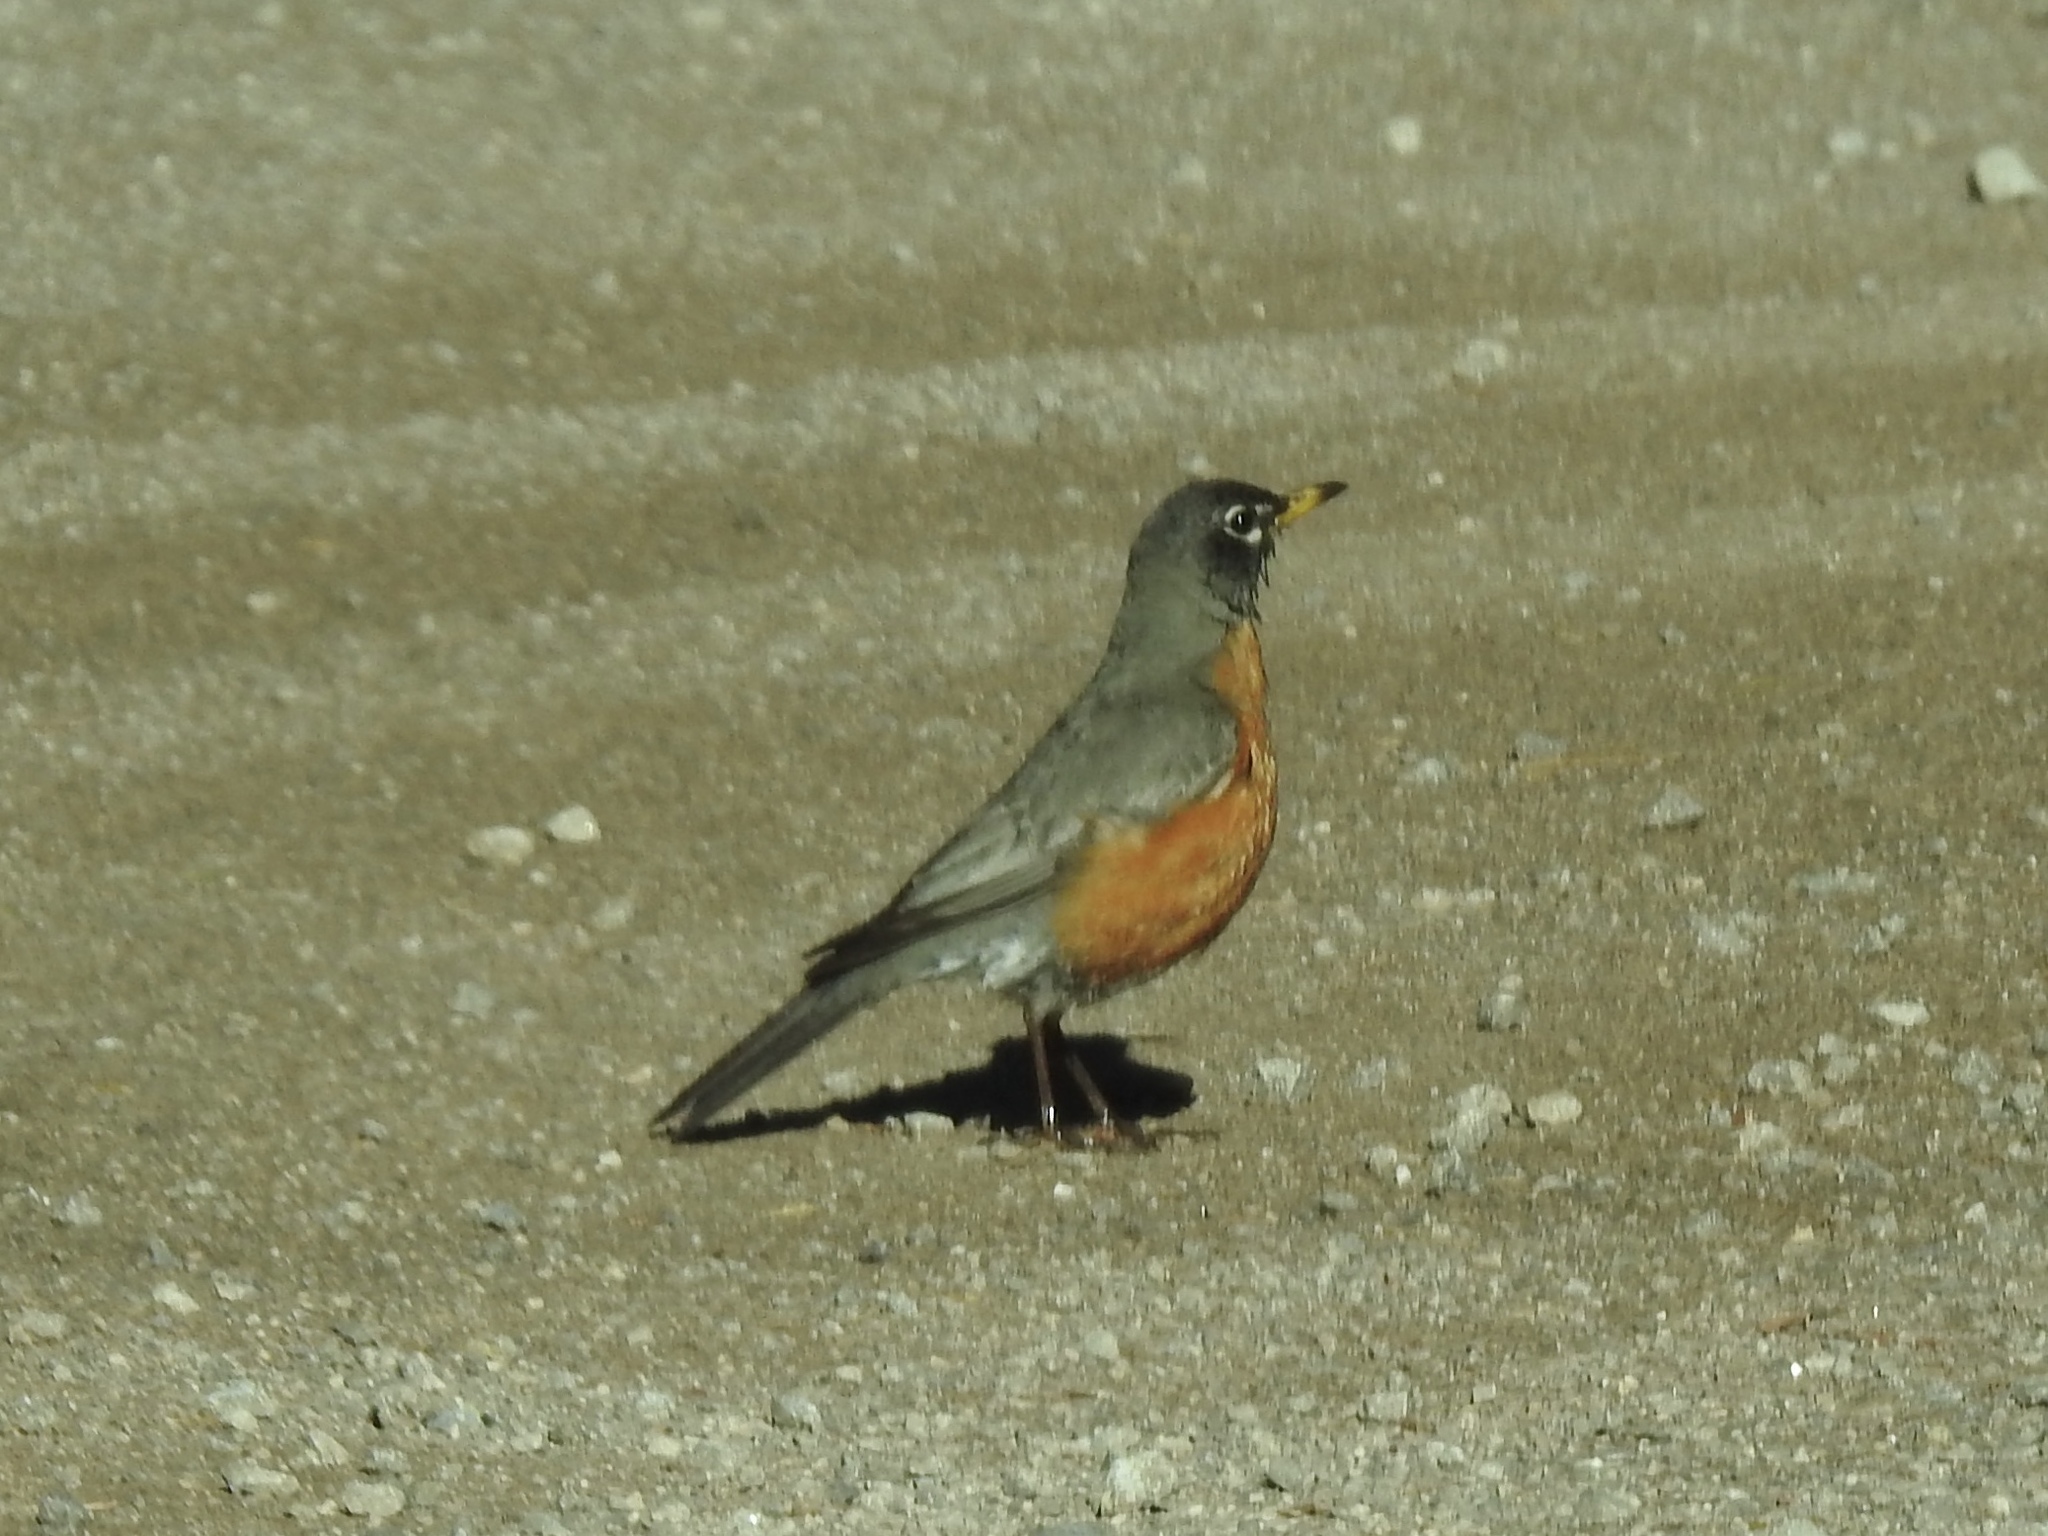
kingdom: Animalia
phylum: Chordata
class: Aves
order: Passeriformes
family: Turdidae
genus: Turdus
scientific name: Turdus migratorius
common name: American robin
